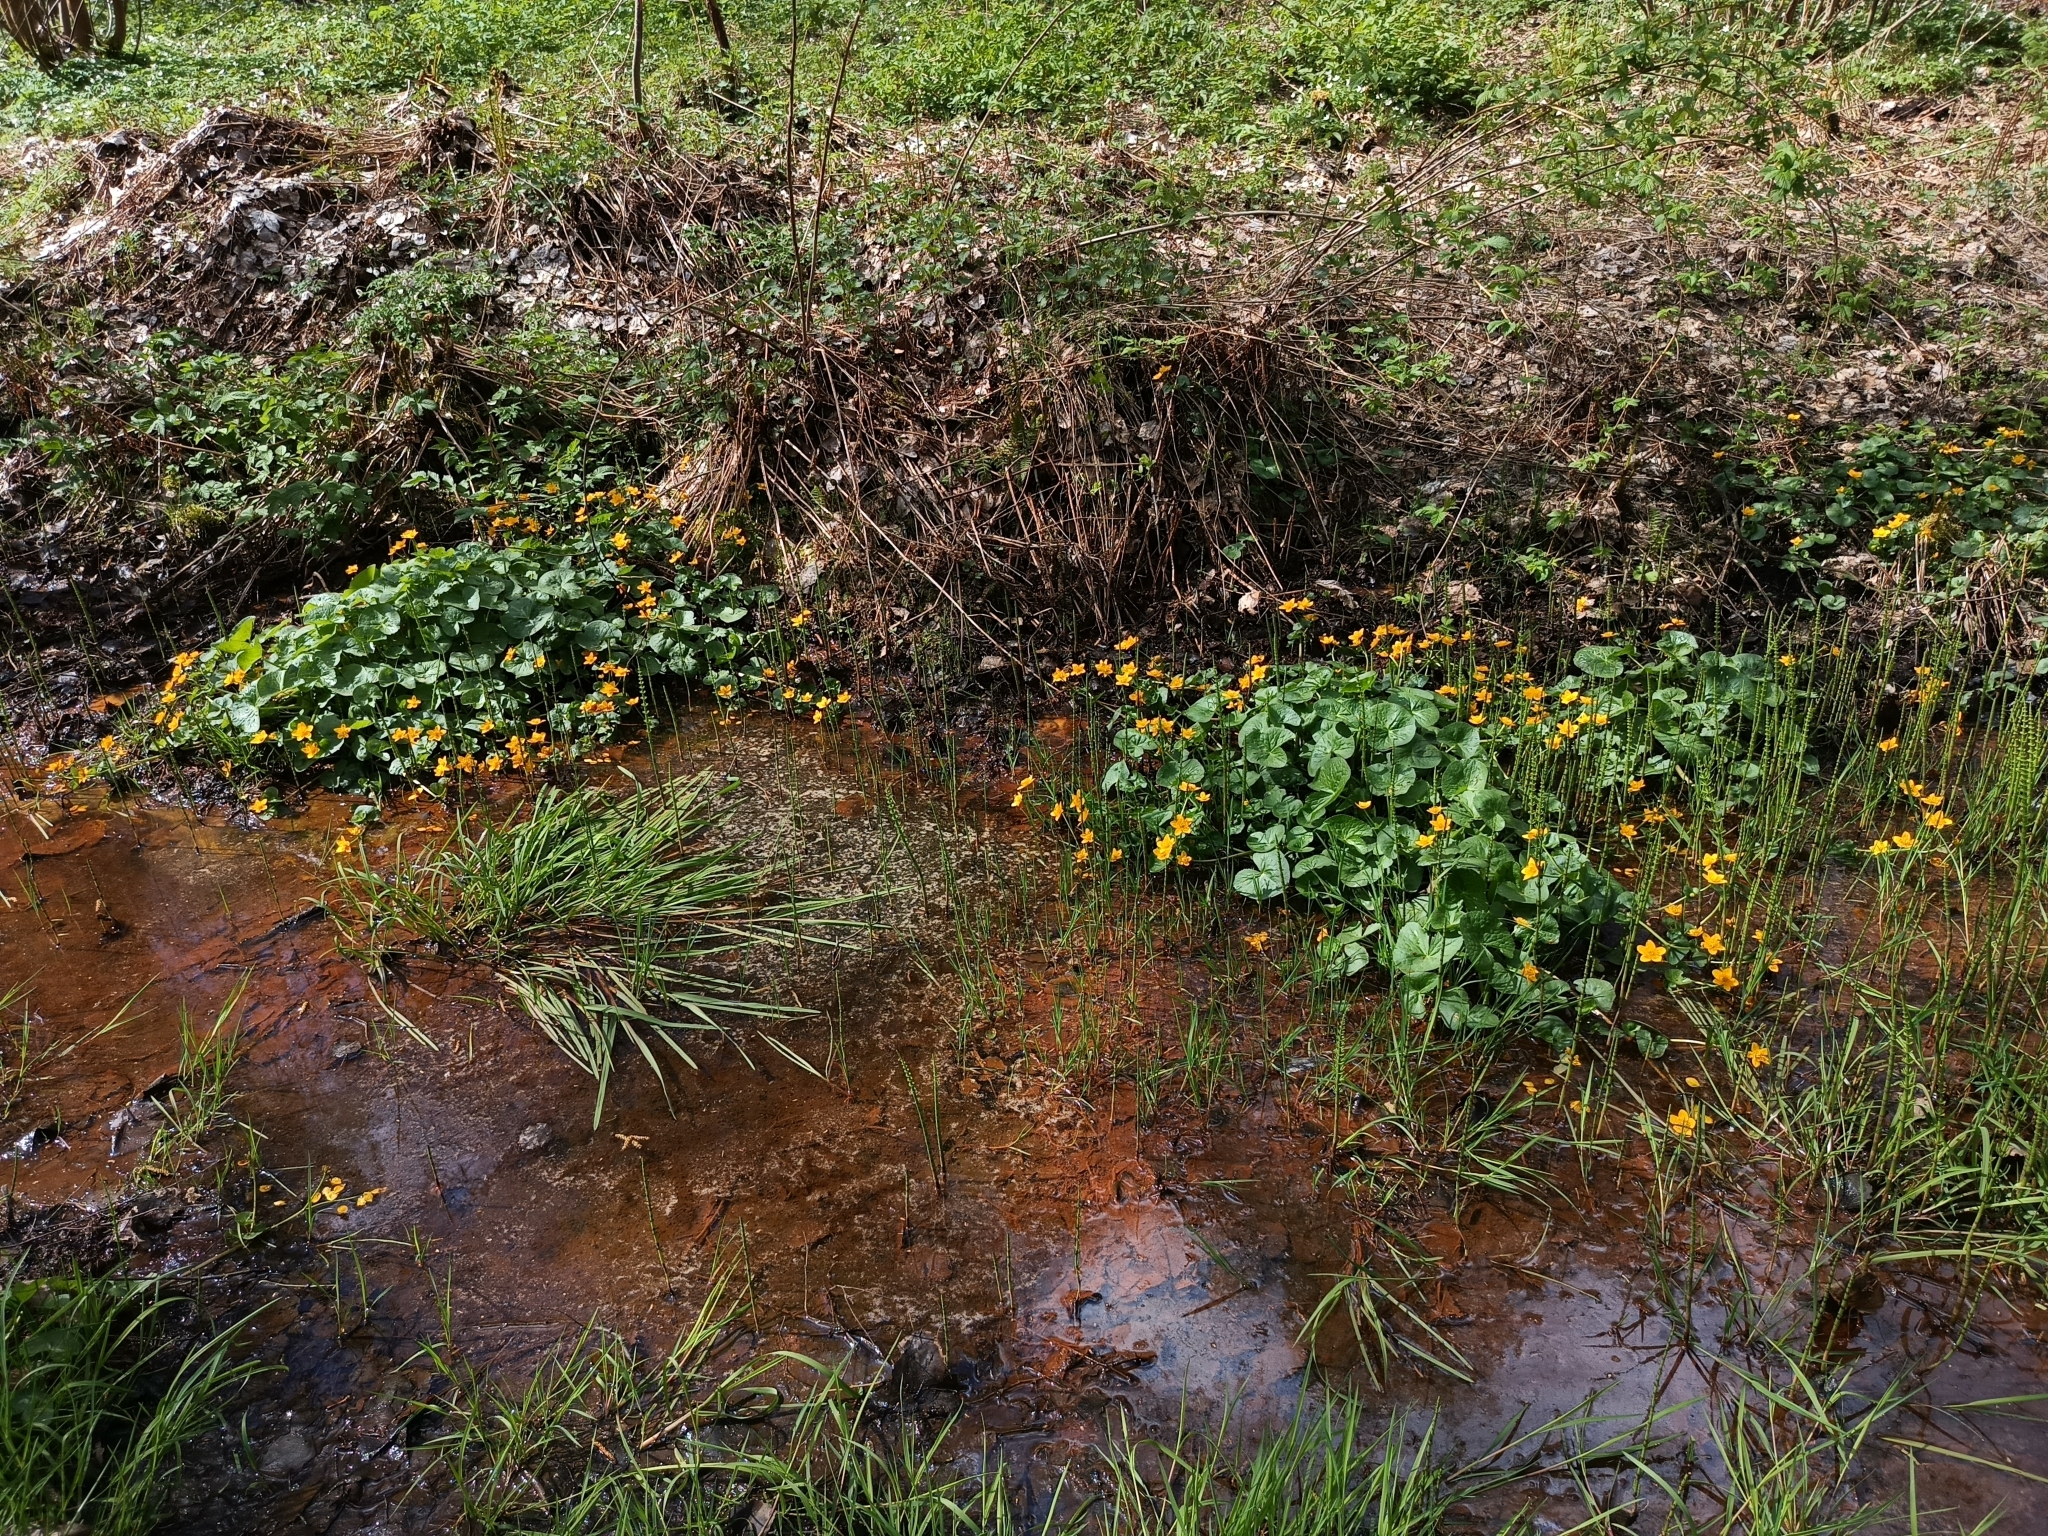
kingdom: Plantae
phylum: Tracheophyta
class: Magnoliopsida
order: Ranunculales
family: Ranunculaceae
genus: Caltha
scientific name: Caltha palustris
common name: Marsh marigold
